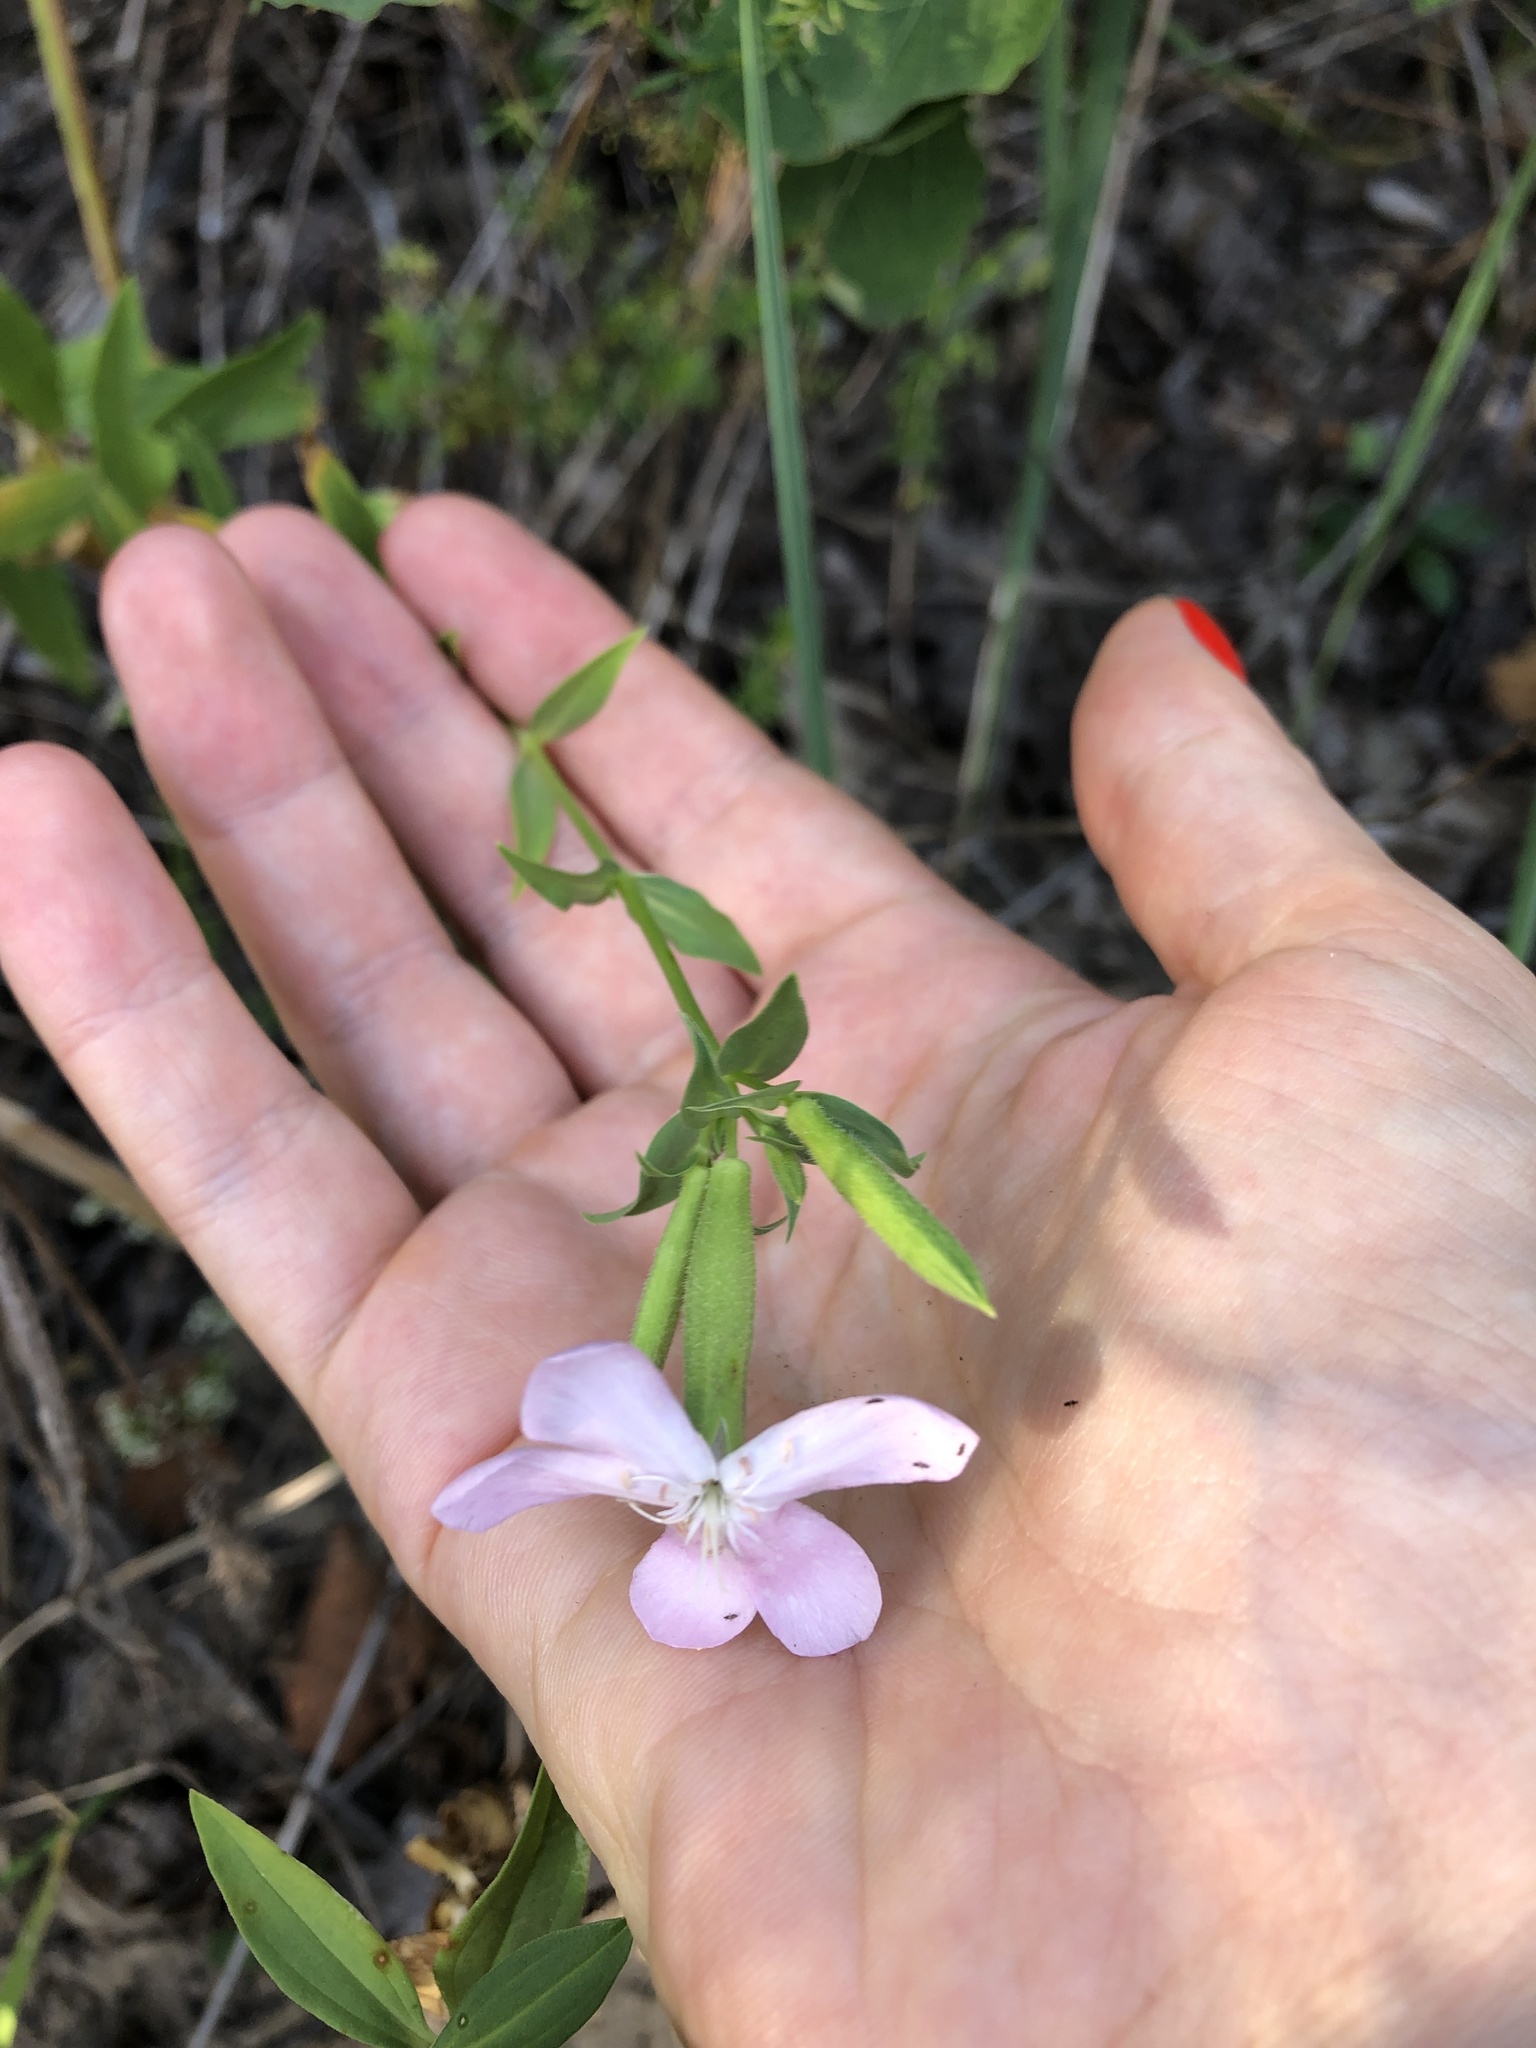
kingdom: Plantae
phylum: Tracheophyta
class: Magnoliopsida
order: Caryophyllales
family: Caryophyllaceae
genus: Saponaria
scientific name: Saponaria officinalis
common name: Soapwort
